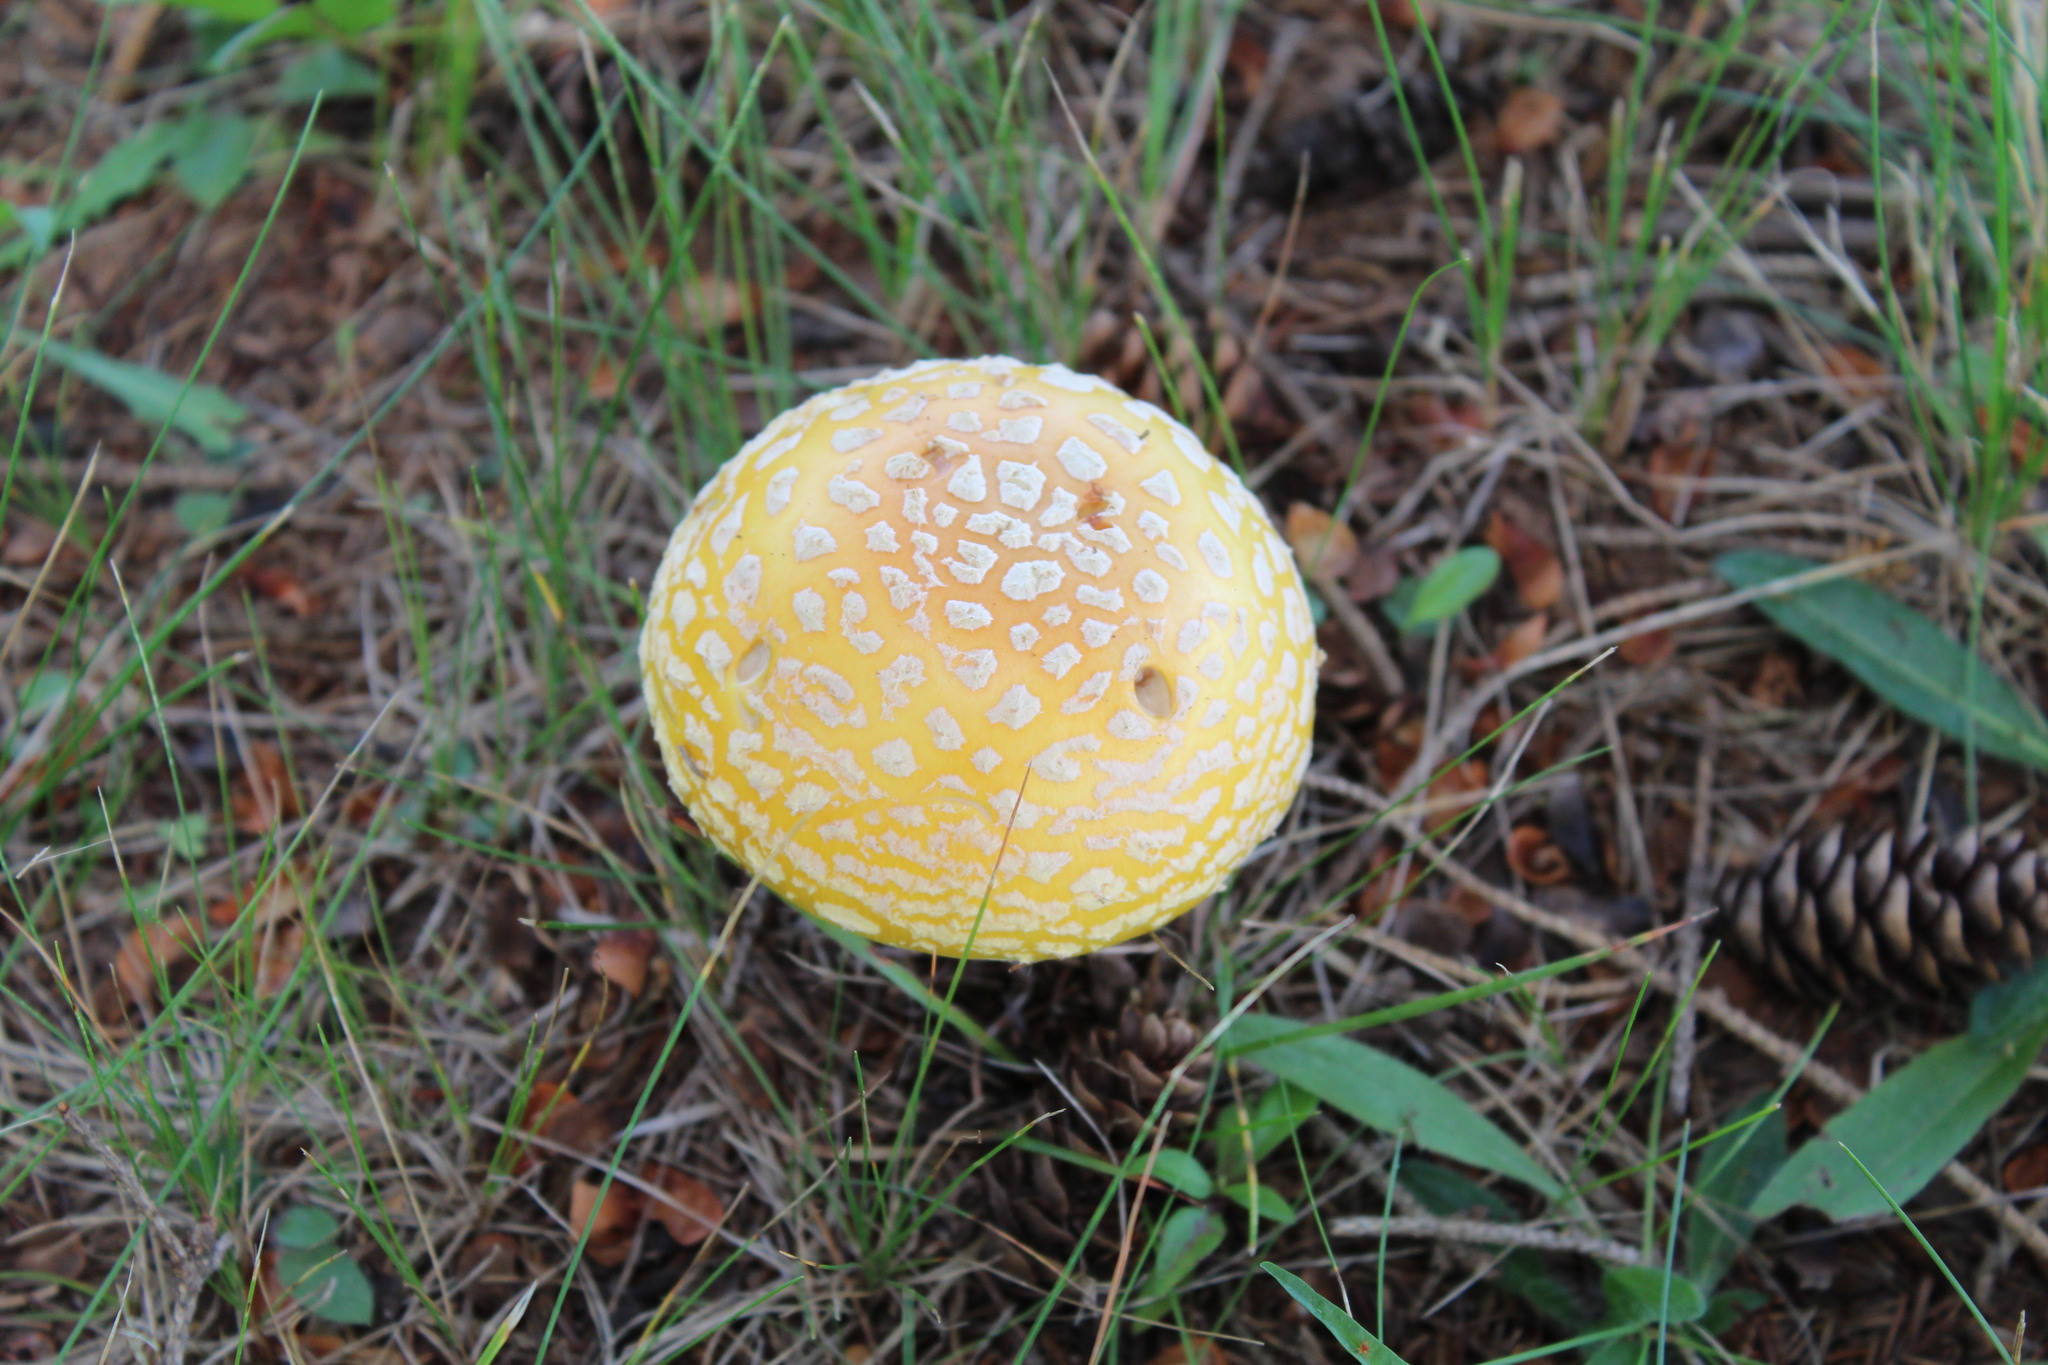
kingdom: Fungi
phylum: Basidiomycota
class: Agaricomycetes
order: Agaricales
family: Amanitaceae
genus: Amanita
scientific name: Amanita muscaria
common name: Fly agaric
